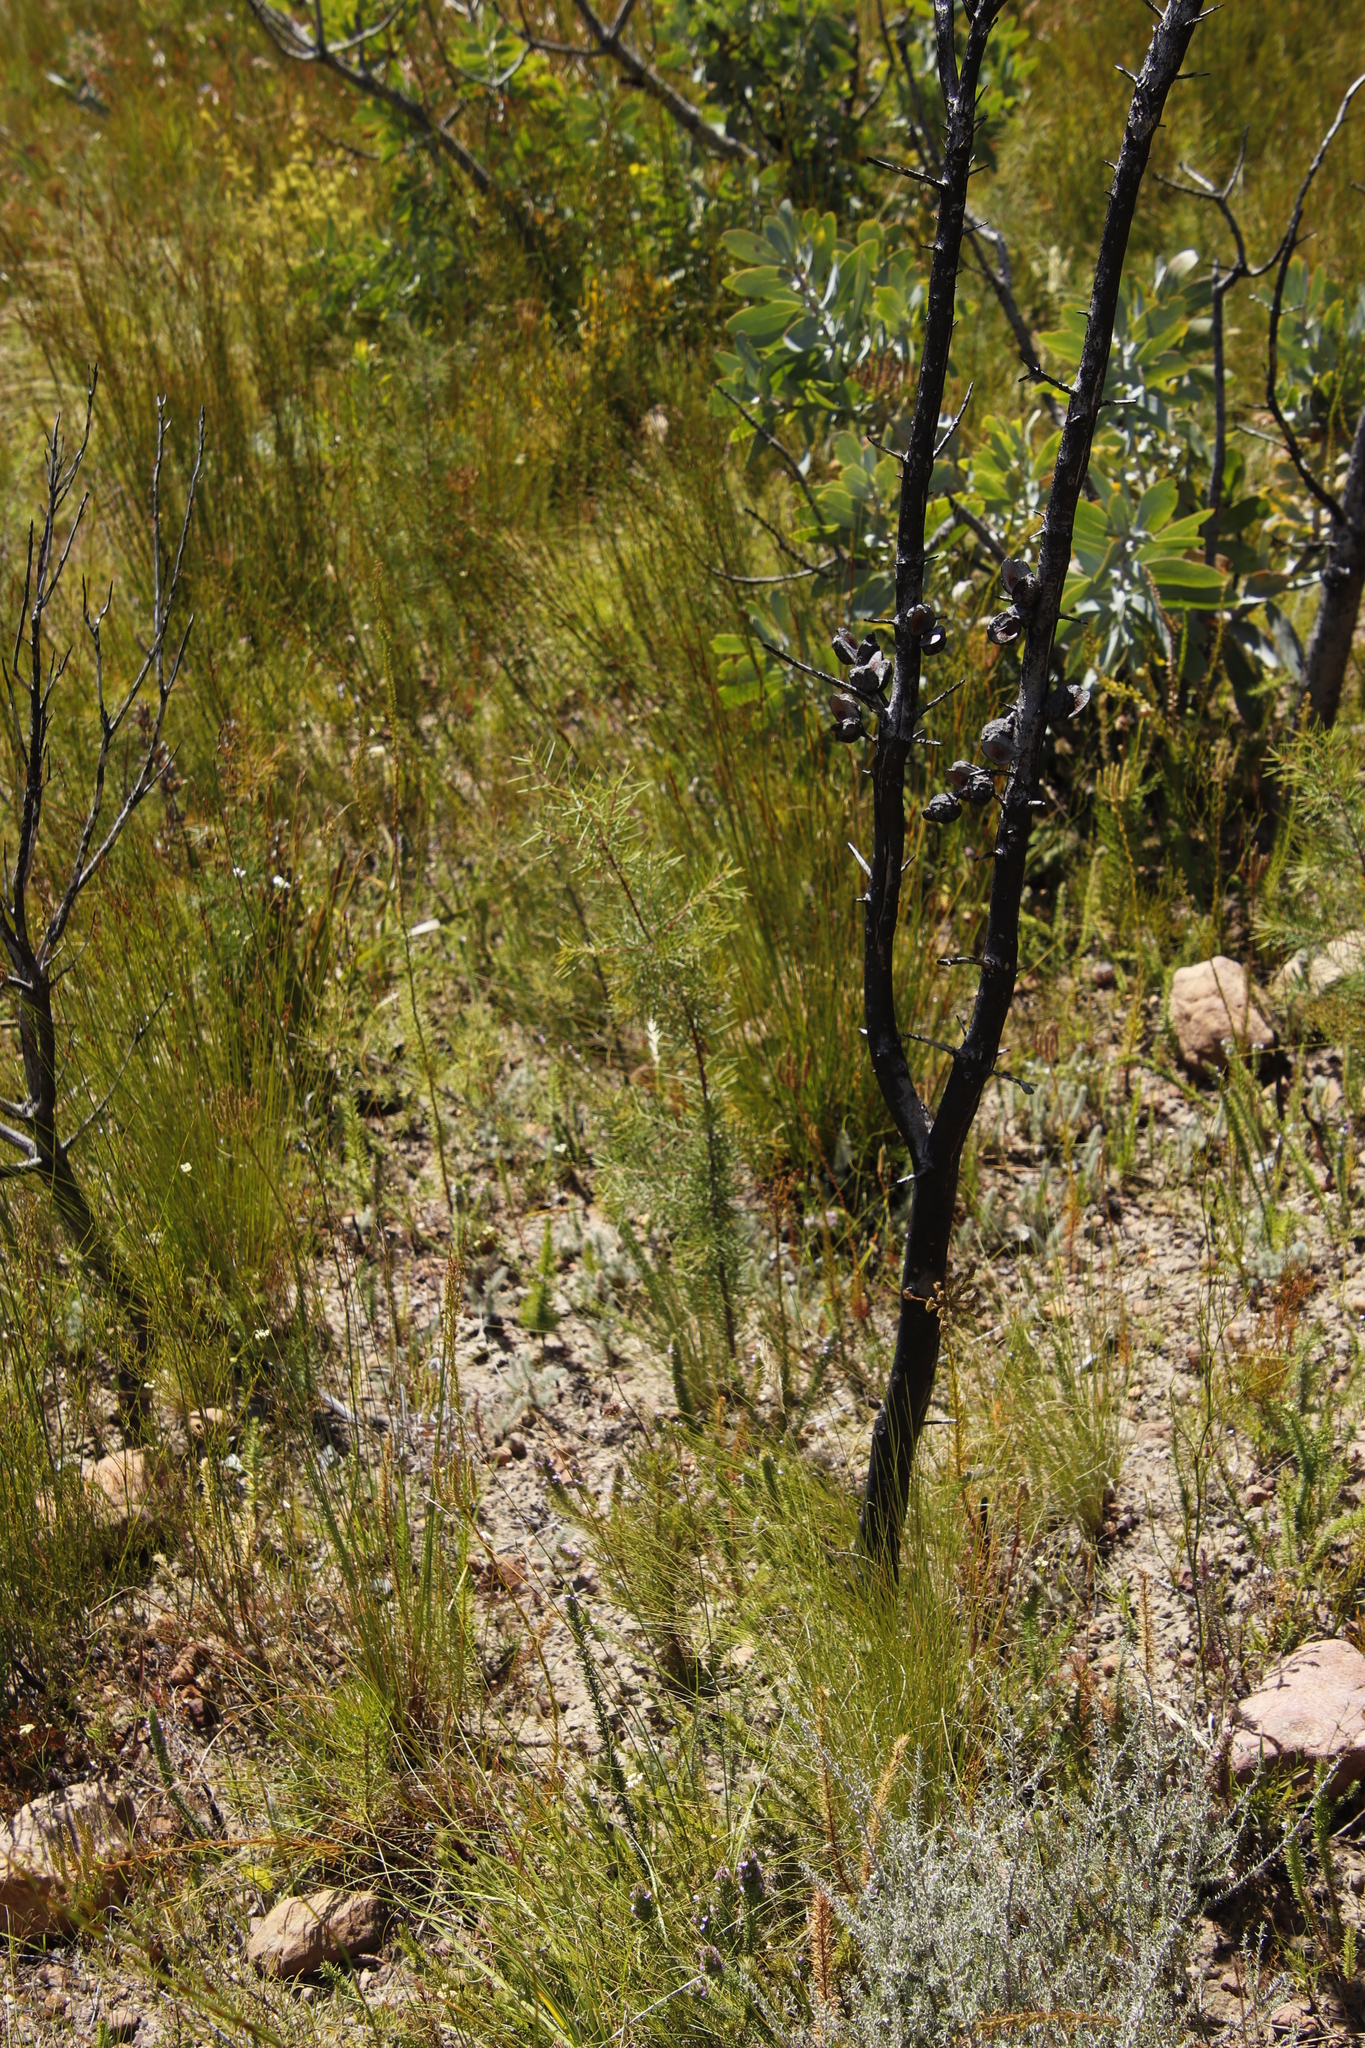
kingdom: Plantae
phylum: Tracheophyta
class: Magnoliopsida
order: Proteales
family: Proteaceae
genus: Hakea
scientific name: Hakea sericea
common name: Needle bush
